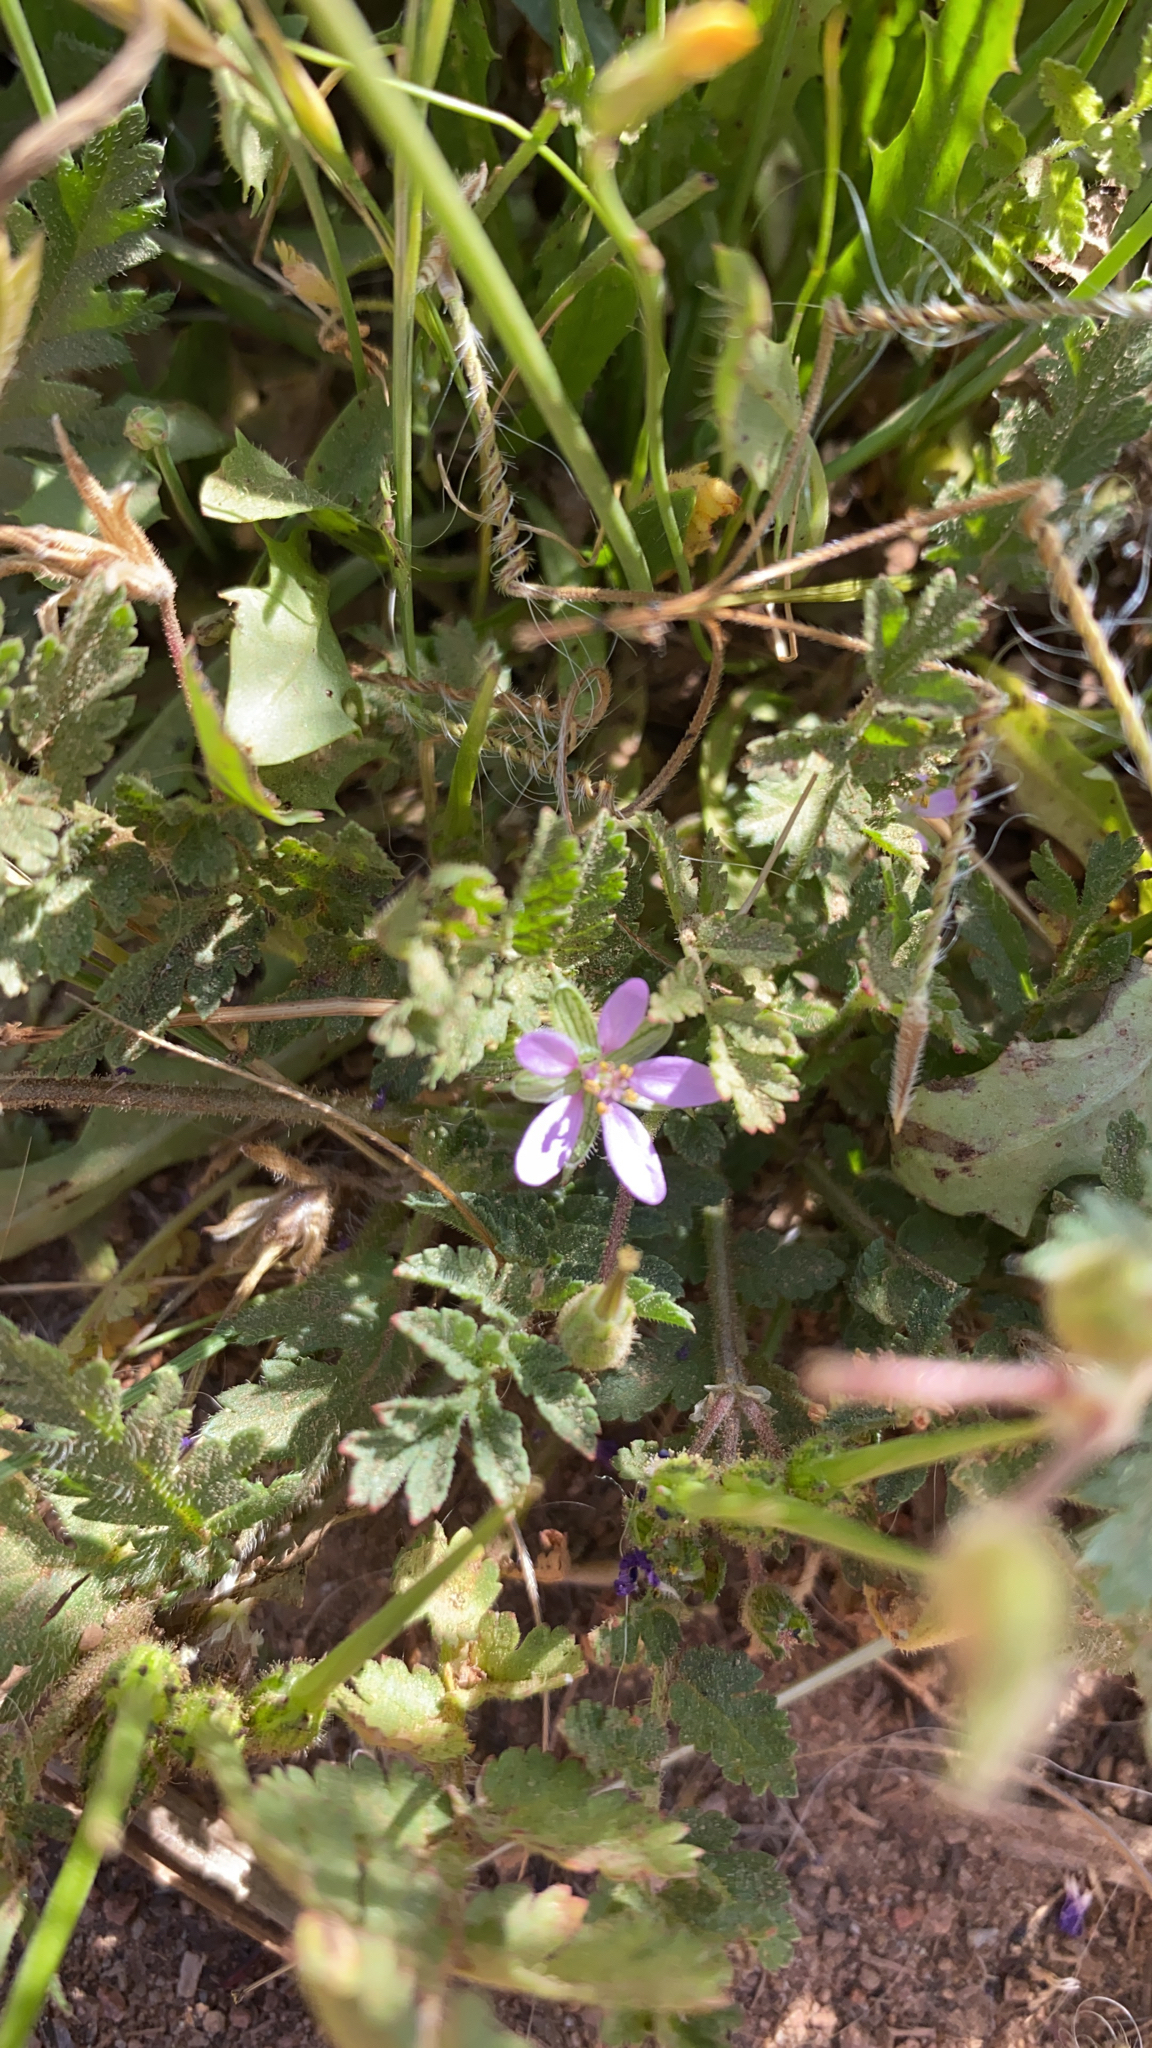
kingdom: Plantae
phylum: Tracheophyta
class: Magnoliopsida
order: Geraniales
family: Geraniaceae
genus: Erodium
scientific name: Erodium moschatum
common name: Musk stork's-bill
